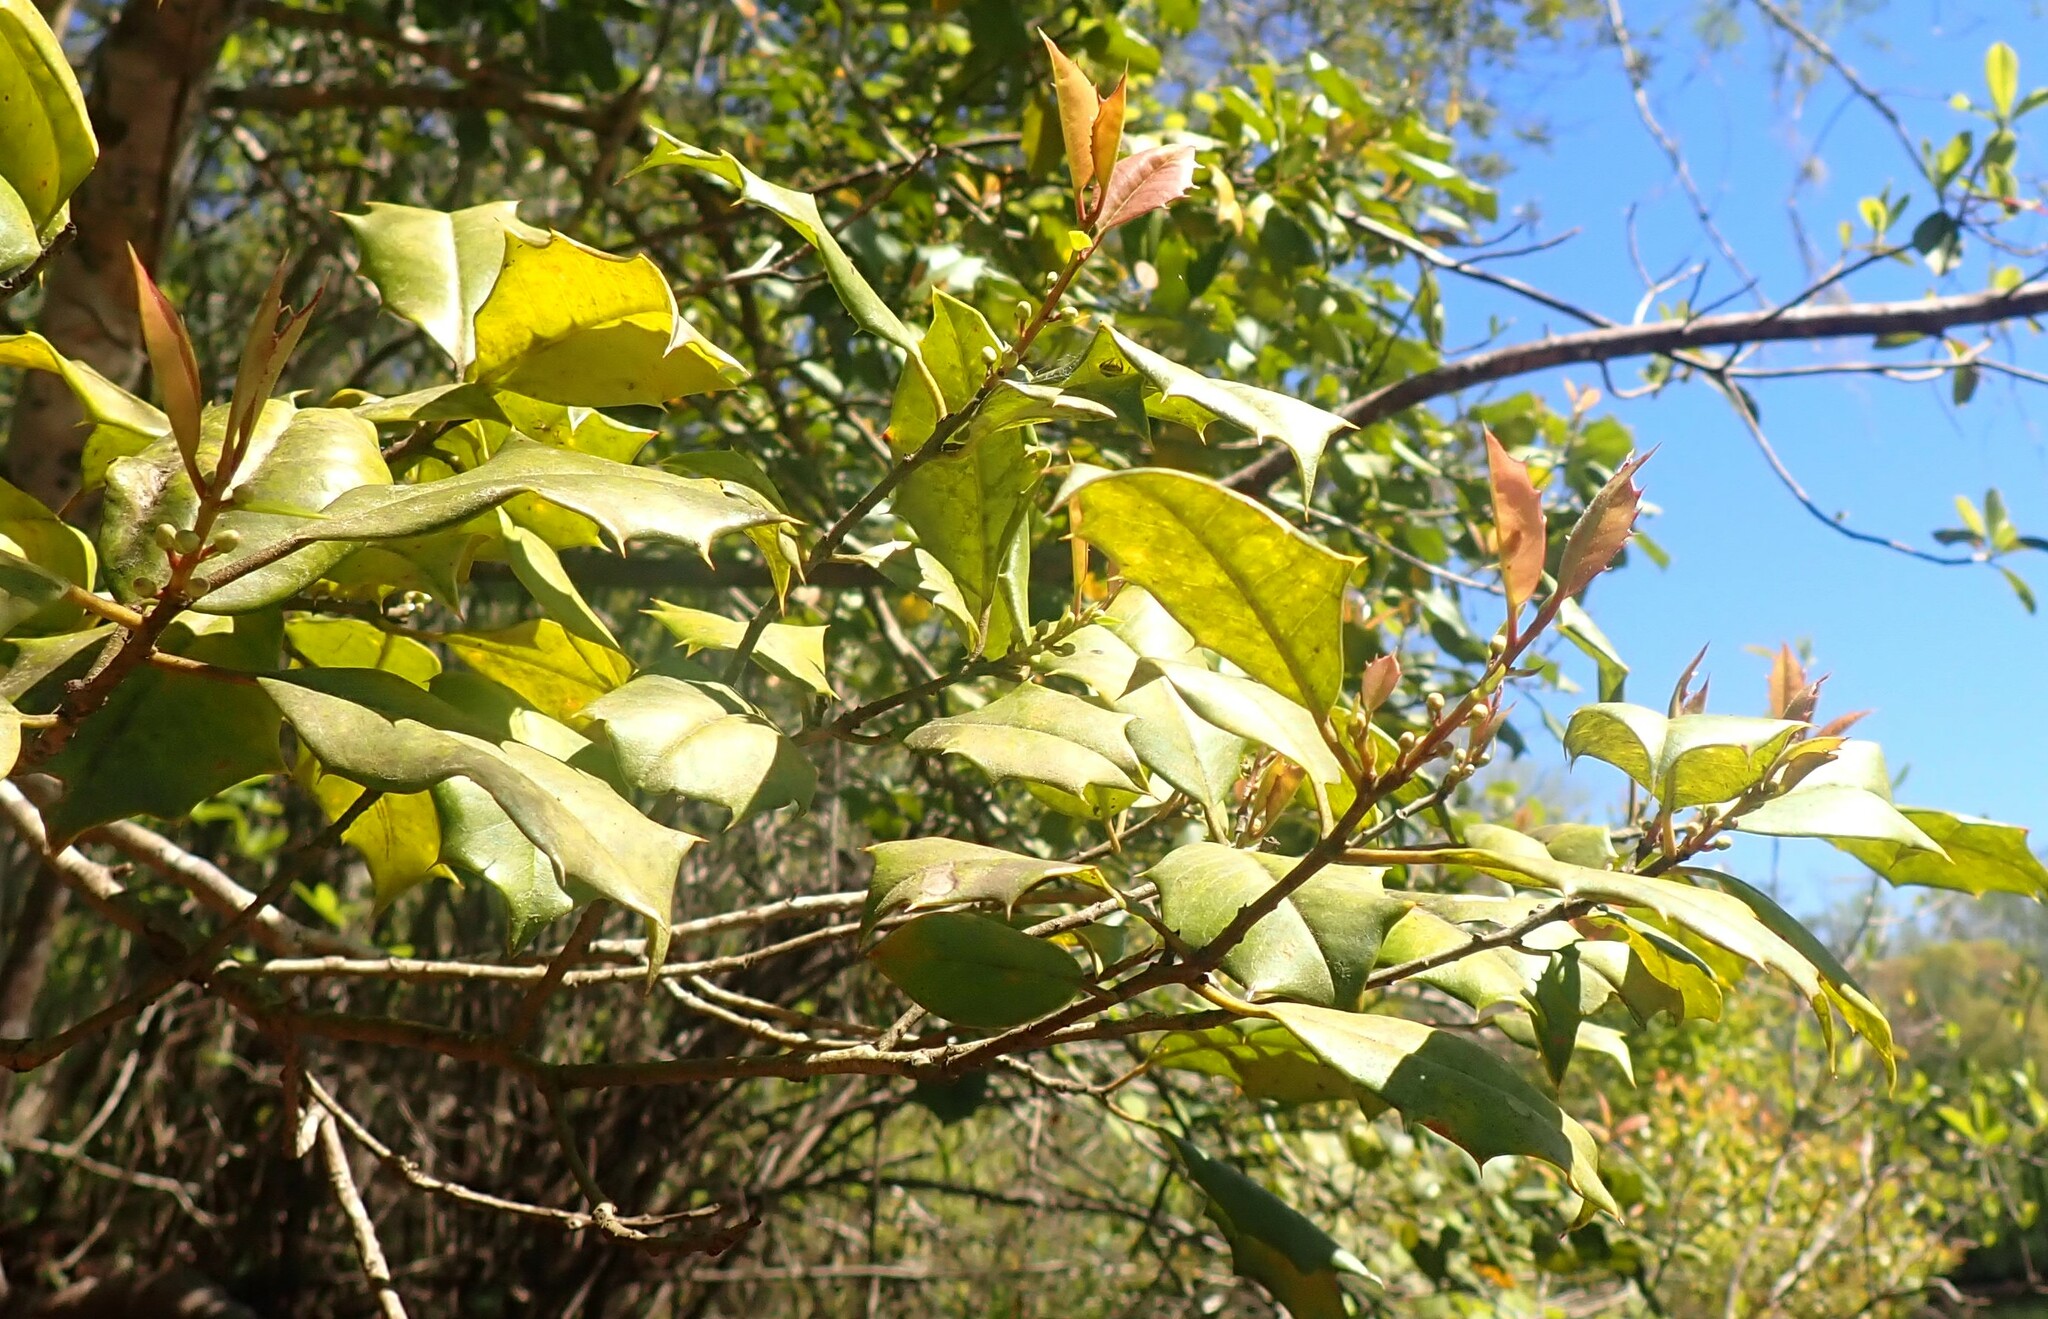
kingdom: Plantae
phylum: Tracheophyta
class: Magnoliopsida
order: Aquifoliales
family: Aquifoliaceae
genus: Ilex
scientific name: Ilex opaca
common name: American holly
